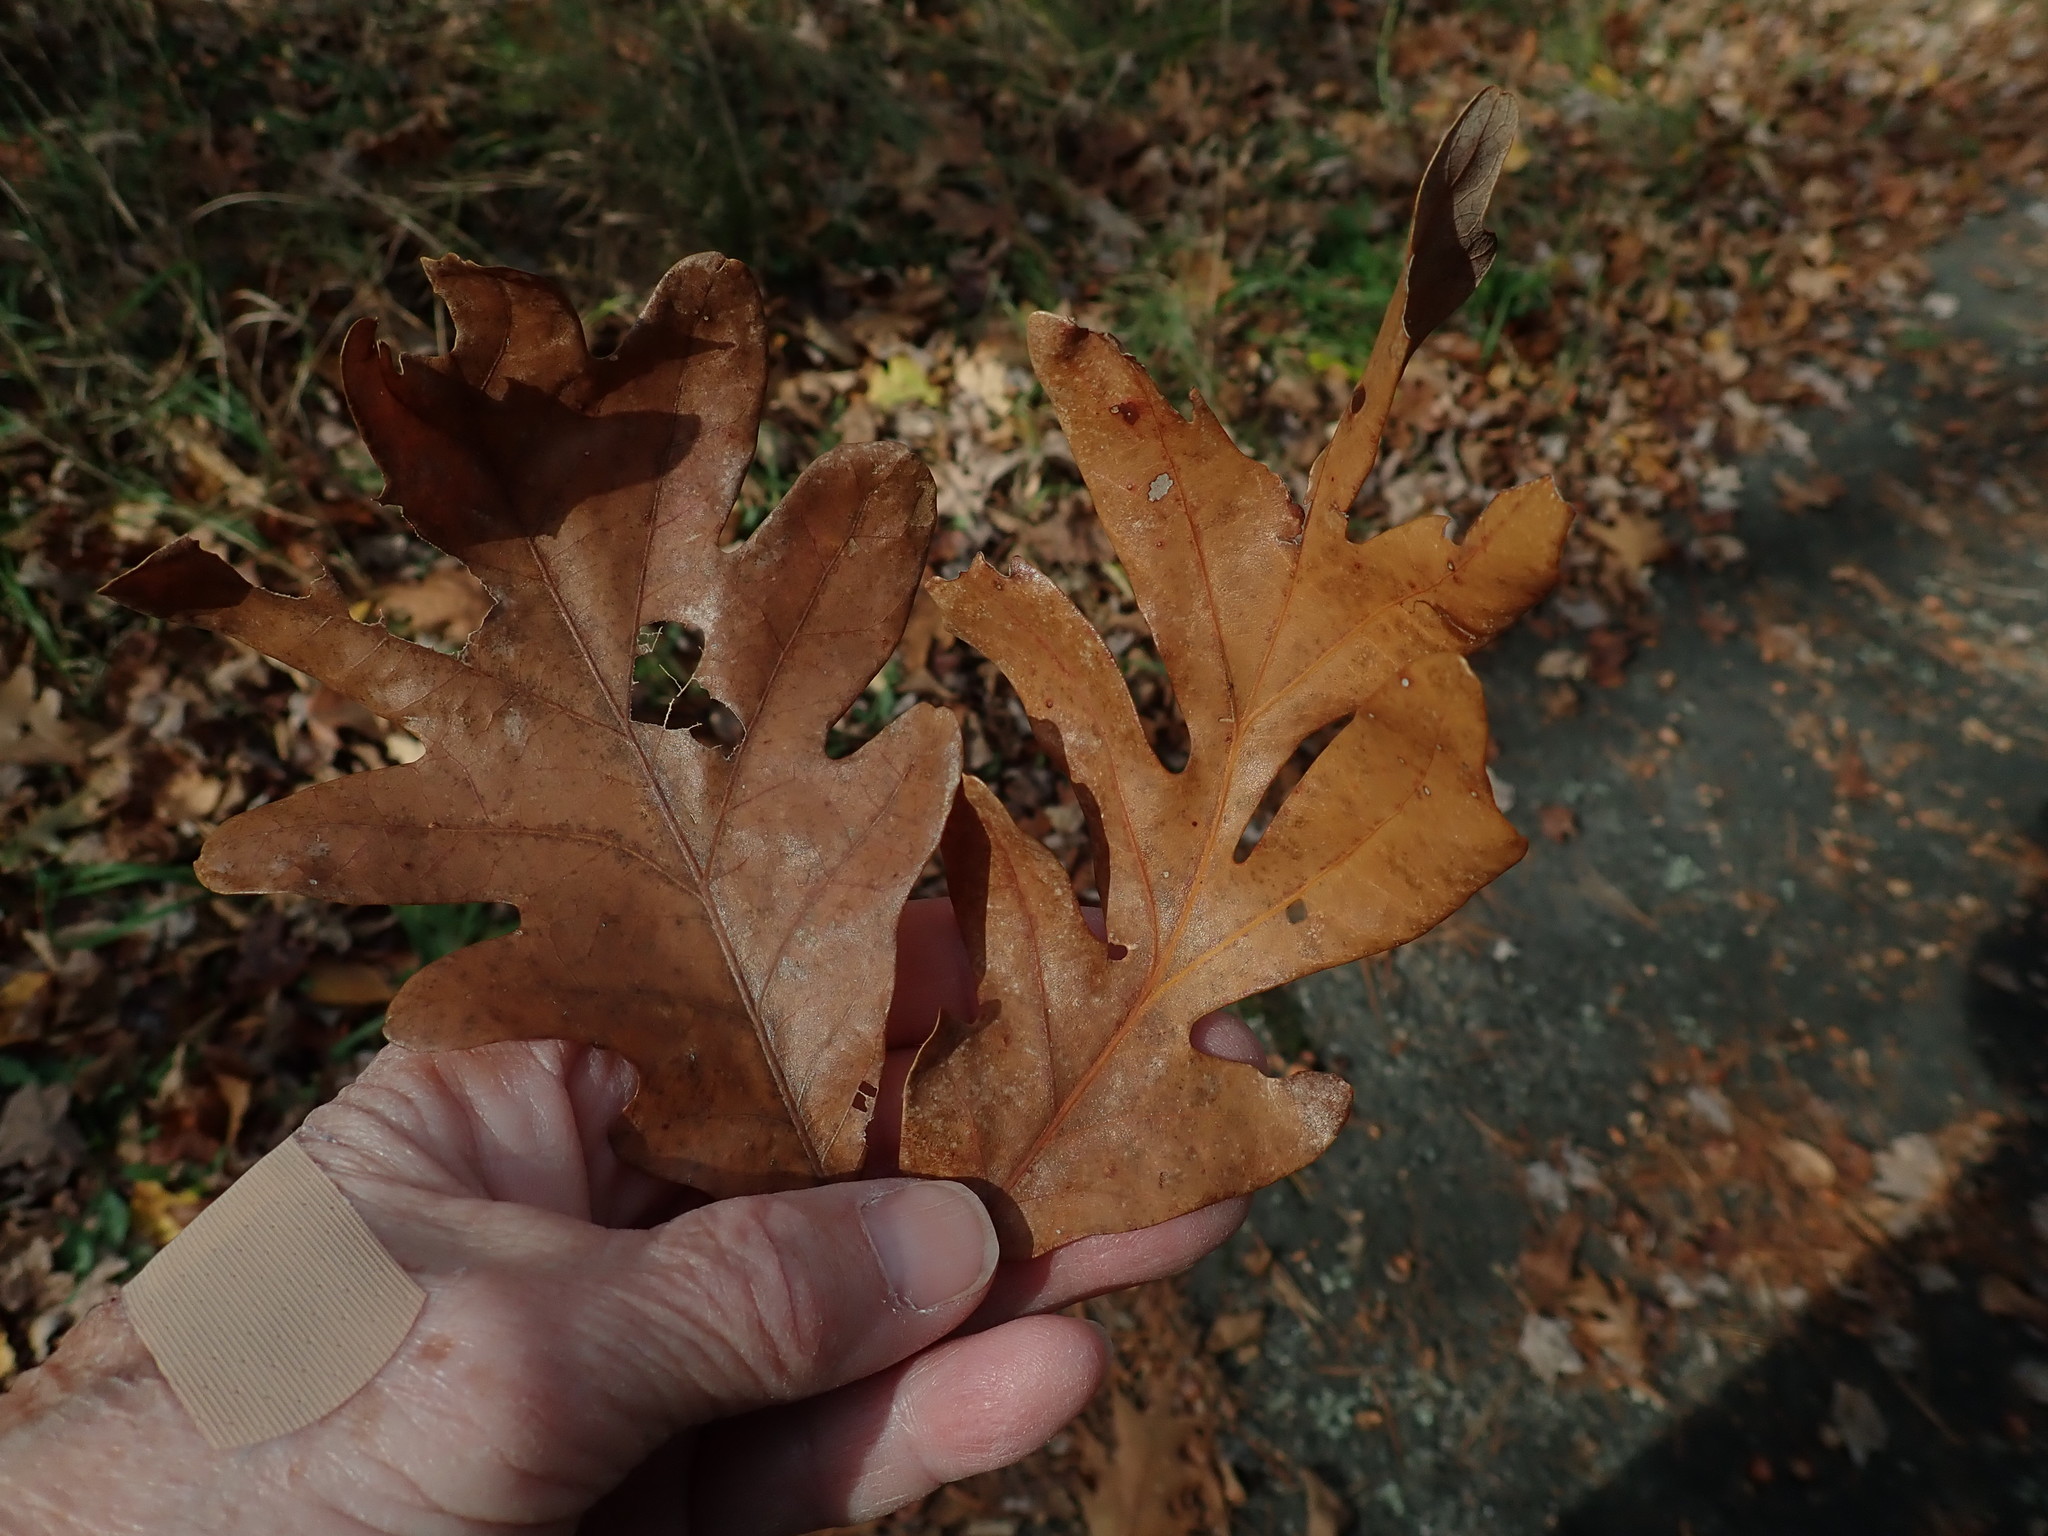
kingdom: Plantae
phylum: Tracheophyta
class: Magnoliopsida
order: Fagales
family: Fagaceae
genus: Quercus
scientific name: Quercus alba
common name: White oak
